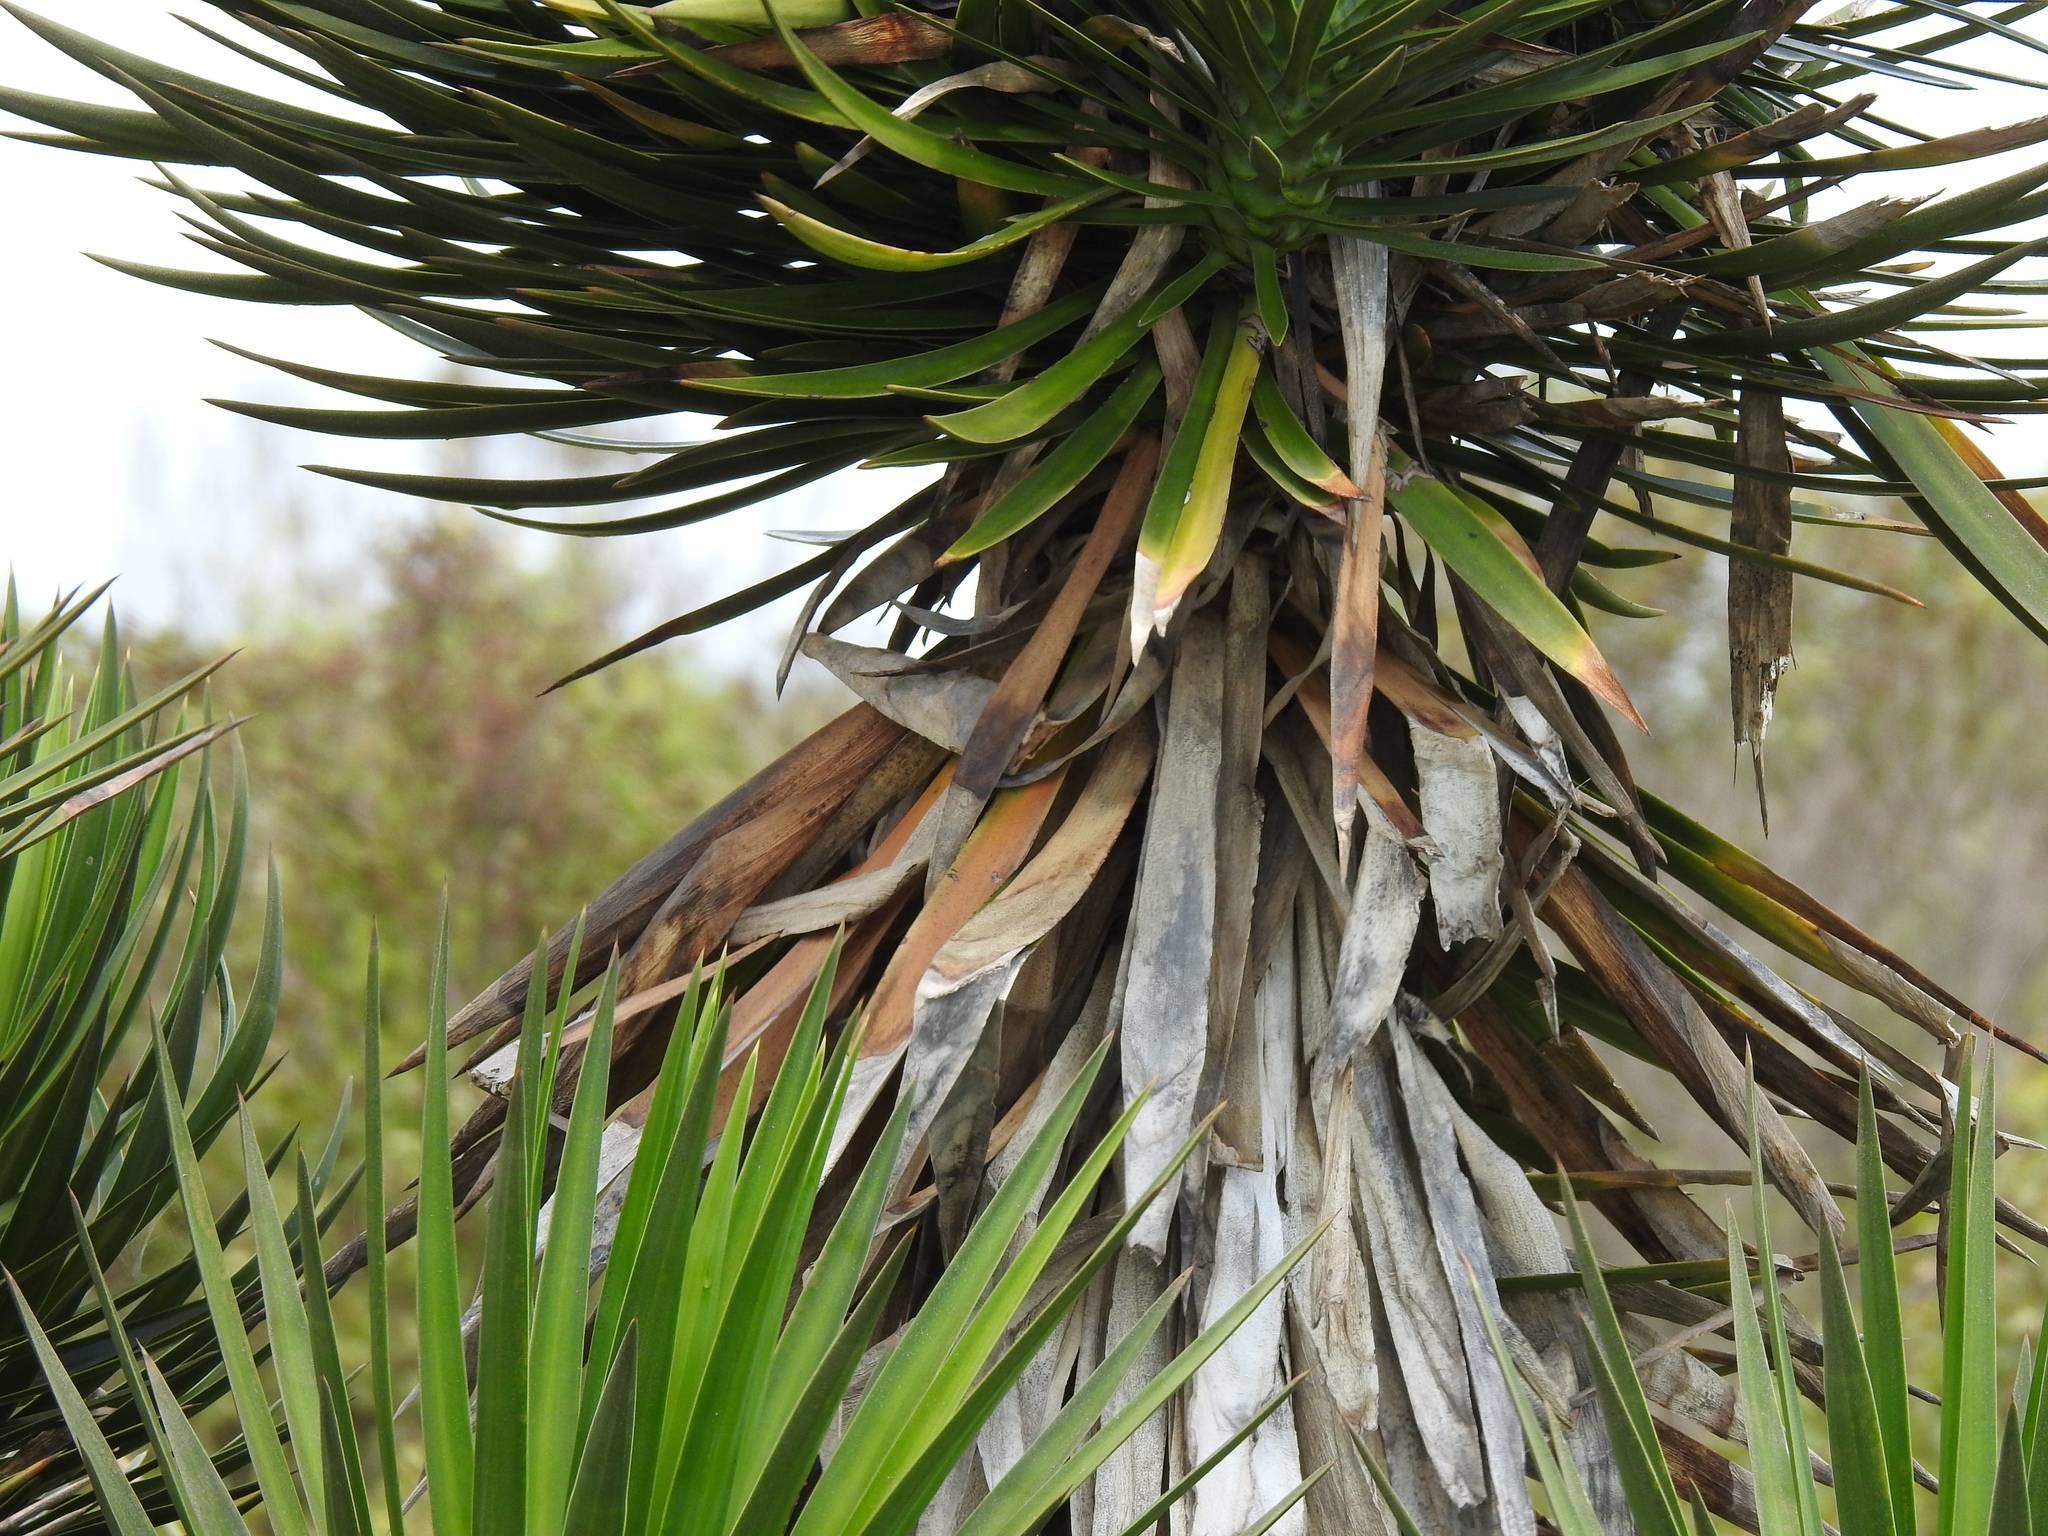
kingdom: Plantae
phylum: Tracheophyta
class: Liliopsida
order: Asparagales
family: Asparagaceae
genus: Yucca
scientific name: Yucca aloifolia
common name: Aloe yucca
